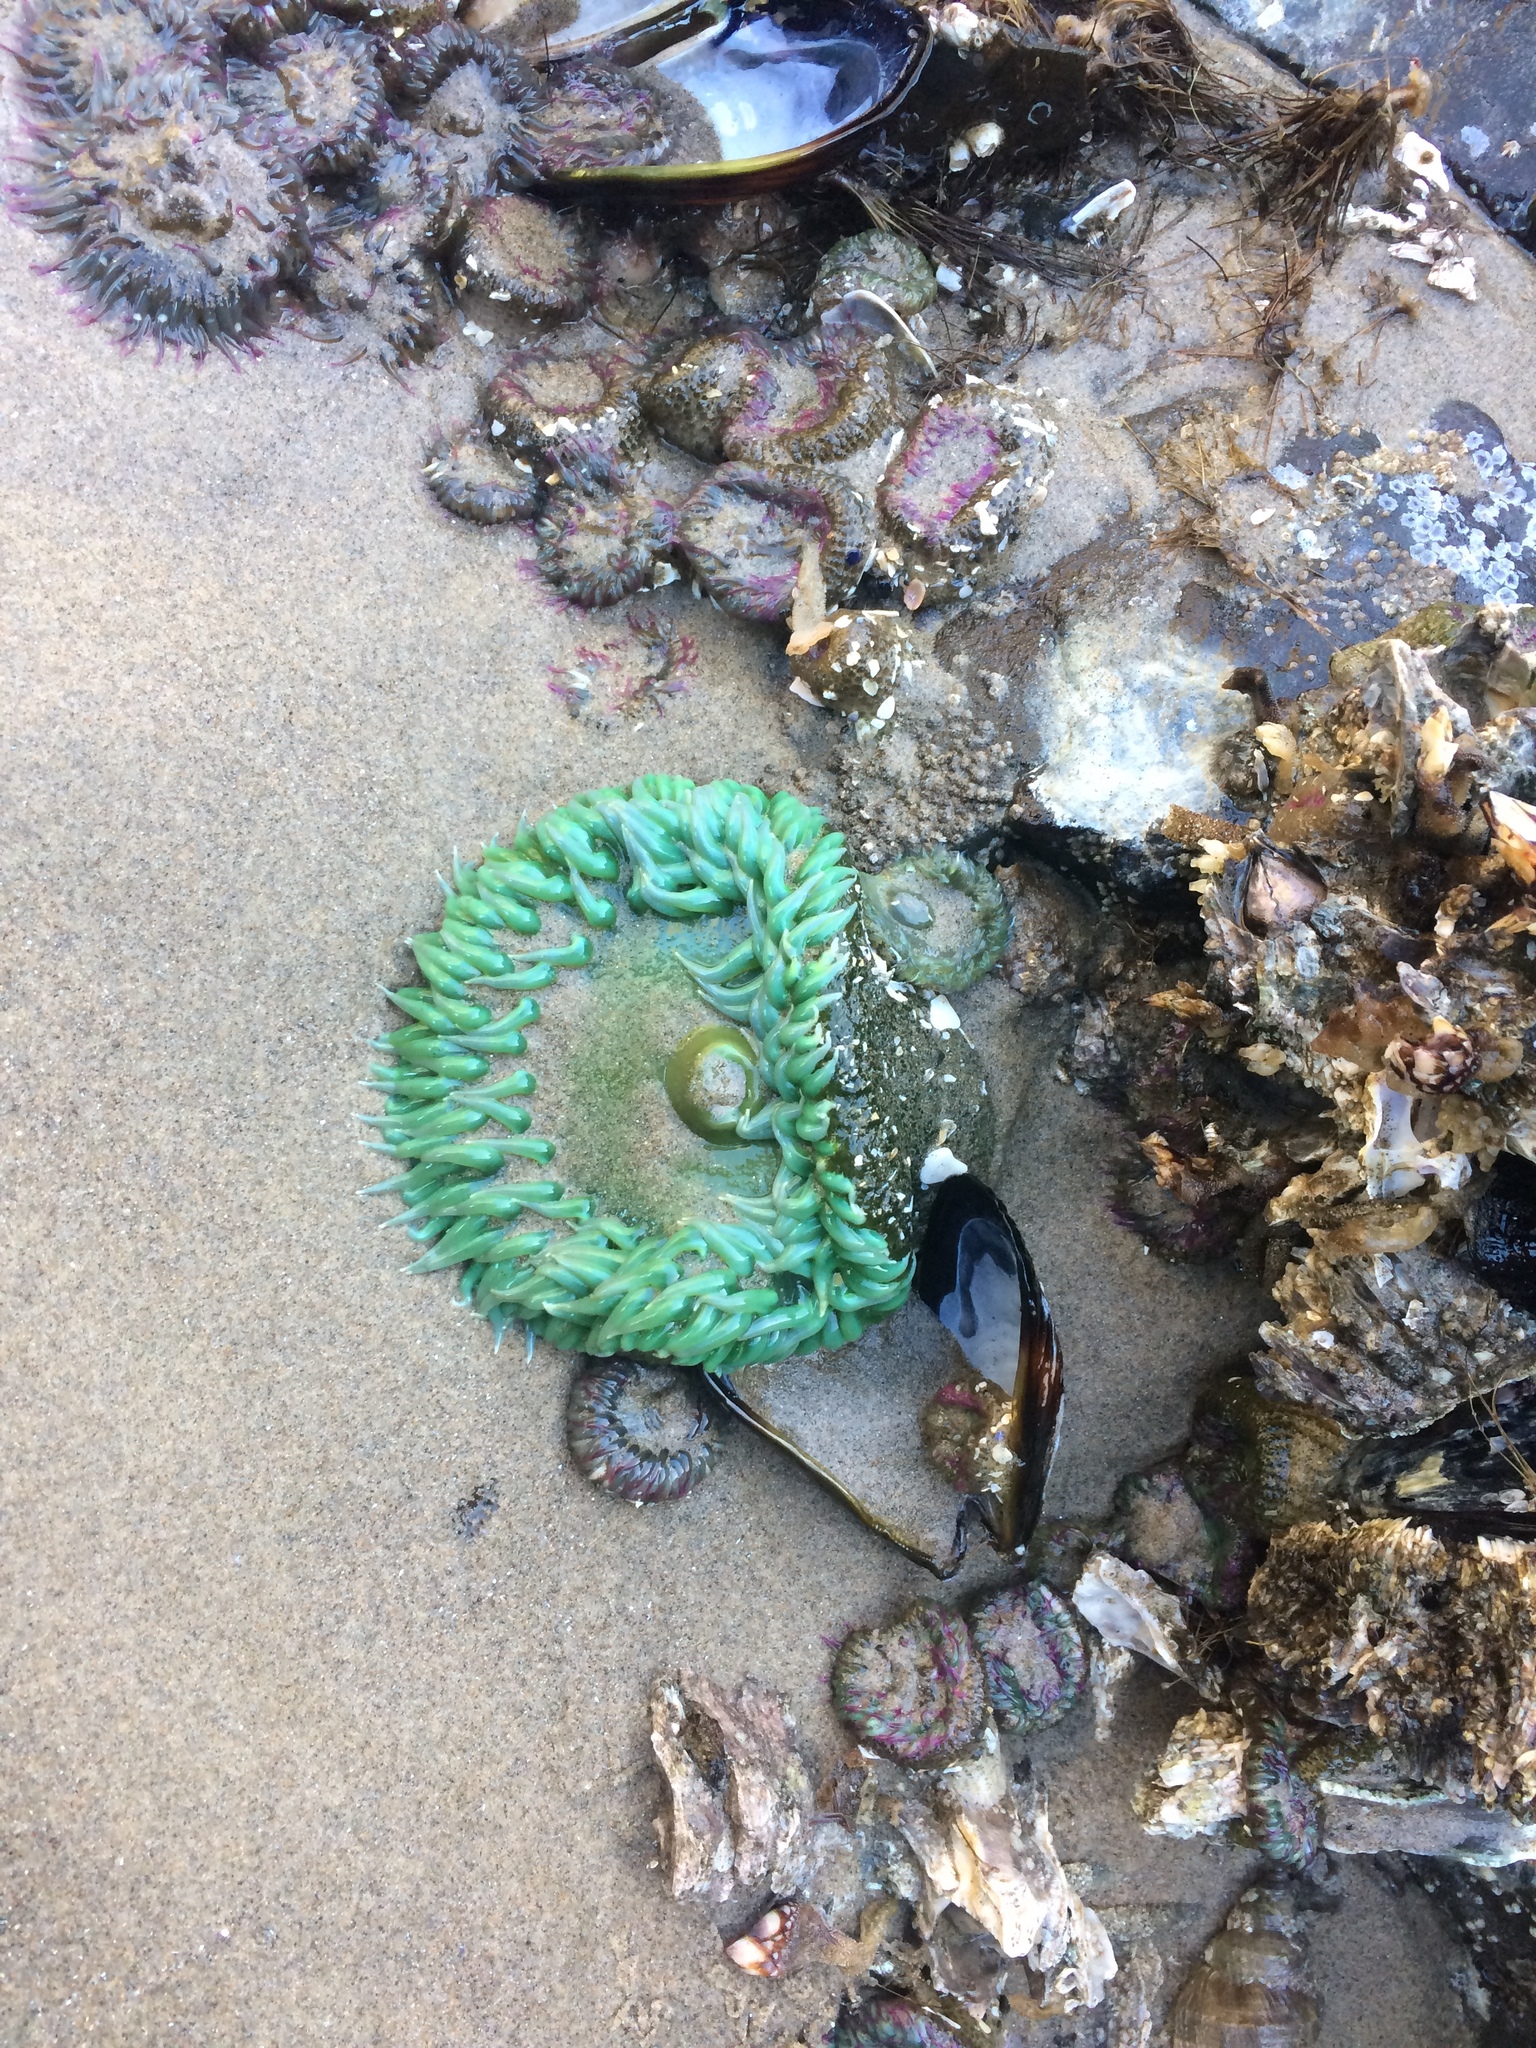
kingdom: Animalia
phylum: Cnidaria
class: Anthozoa
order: Actiniaria
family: Actiniidae
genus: Anthopleura
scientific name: Anthopleura xanthogrammica
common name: Giant green anemone
